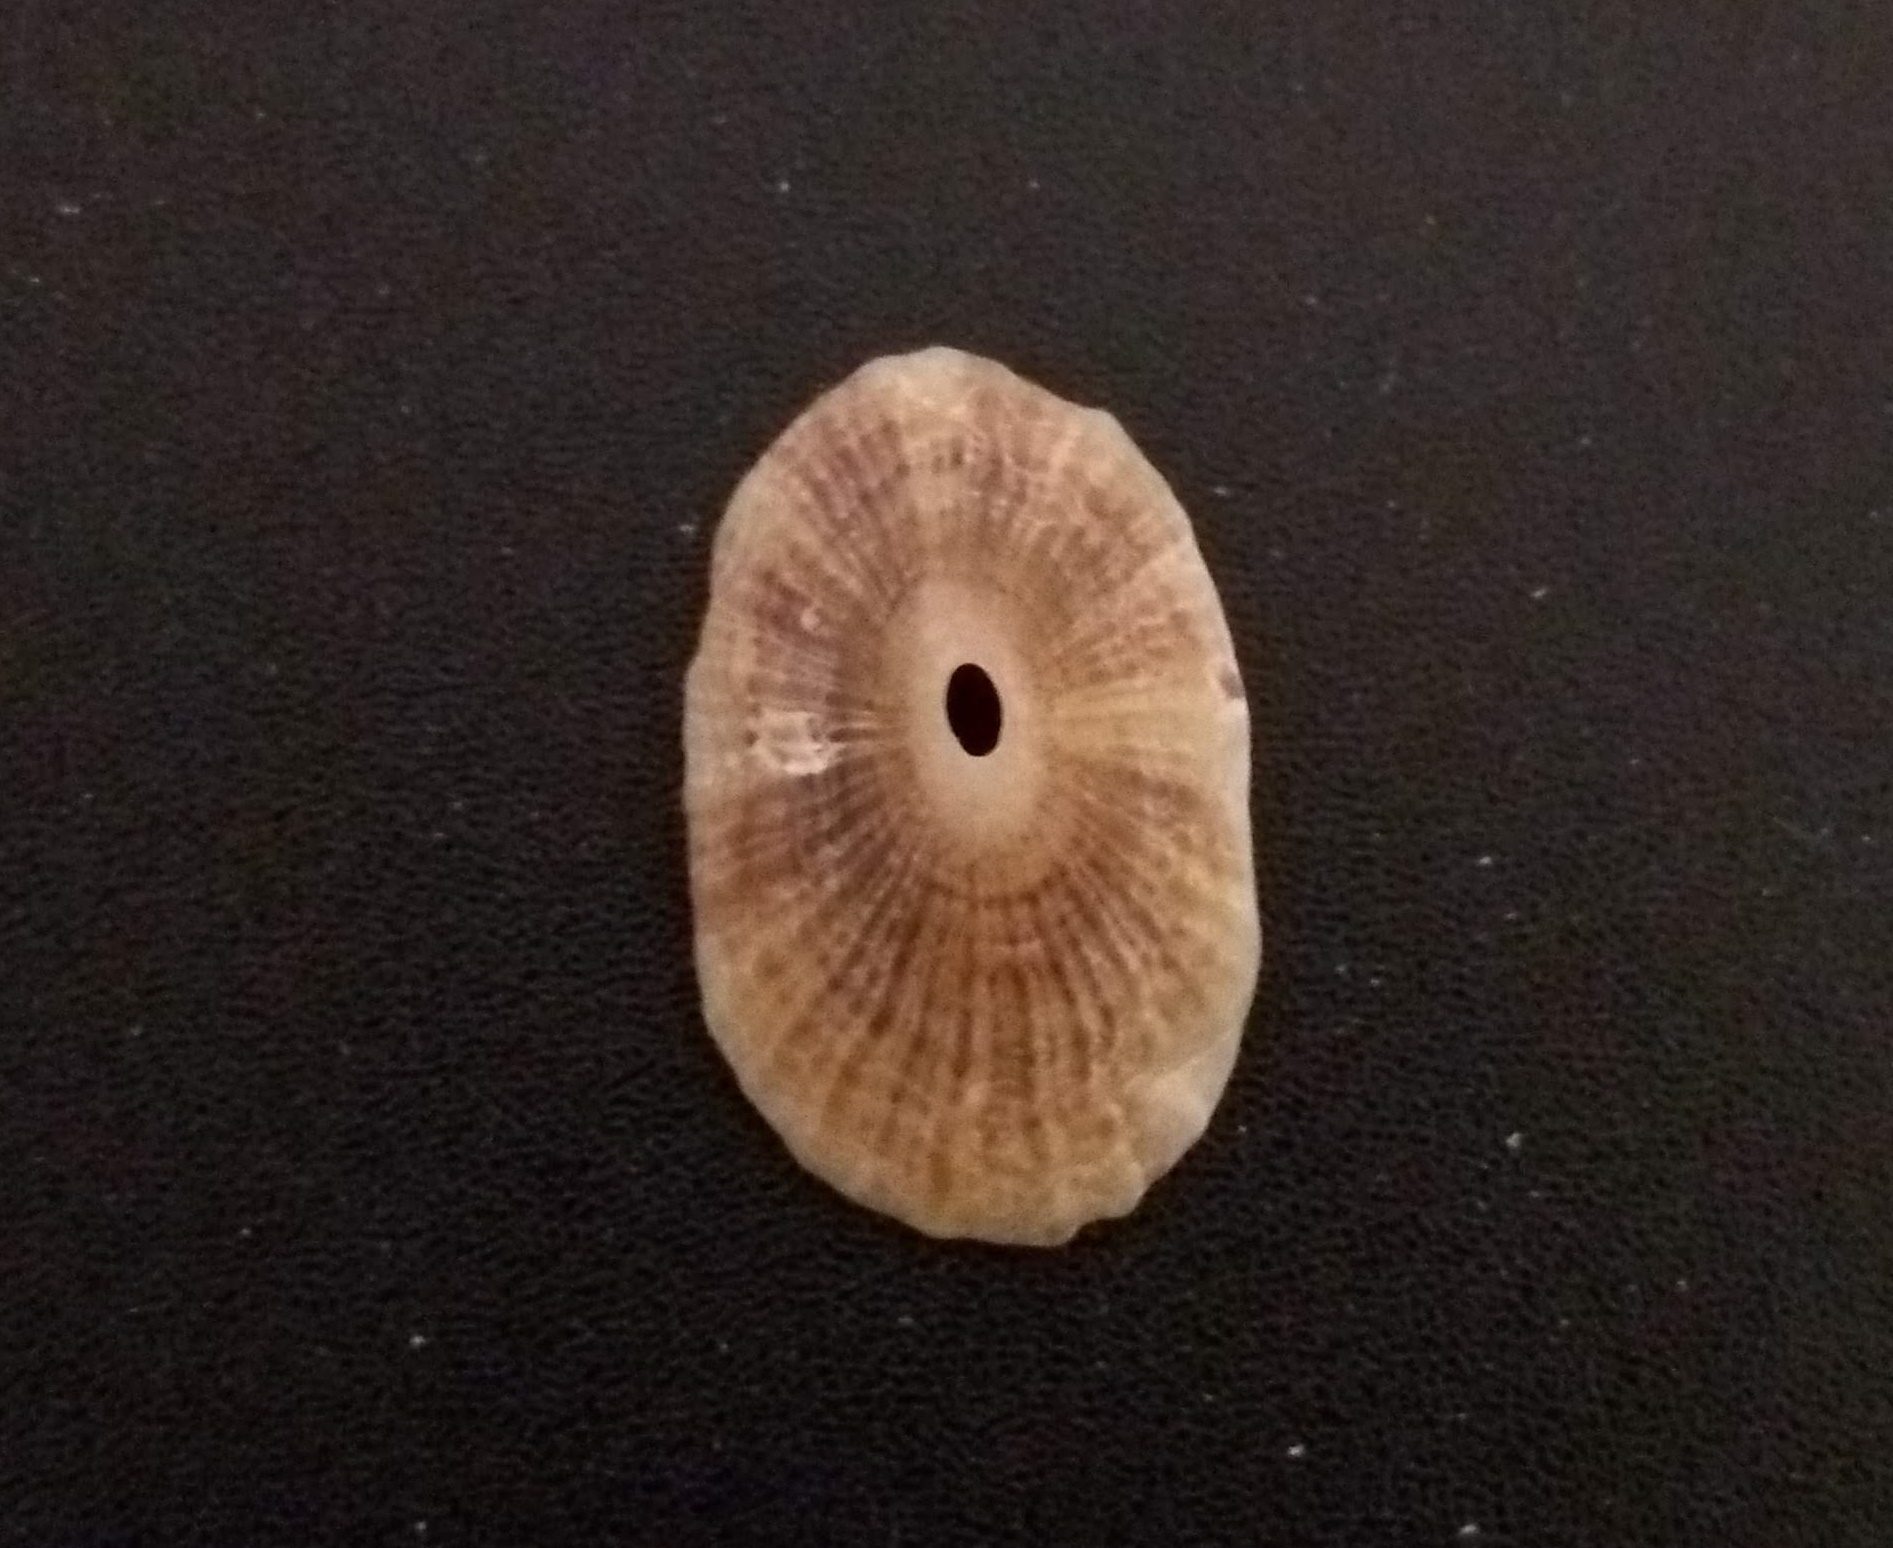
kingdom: Animalia
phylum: Mollusca
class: Gastropoda
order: Lepetellida
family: Fissurellidae
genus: Fissurella
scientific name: Fissurella clenchi
